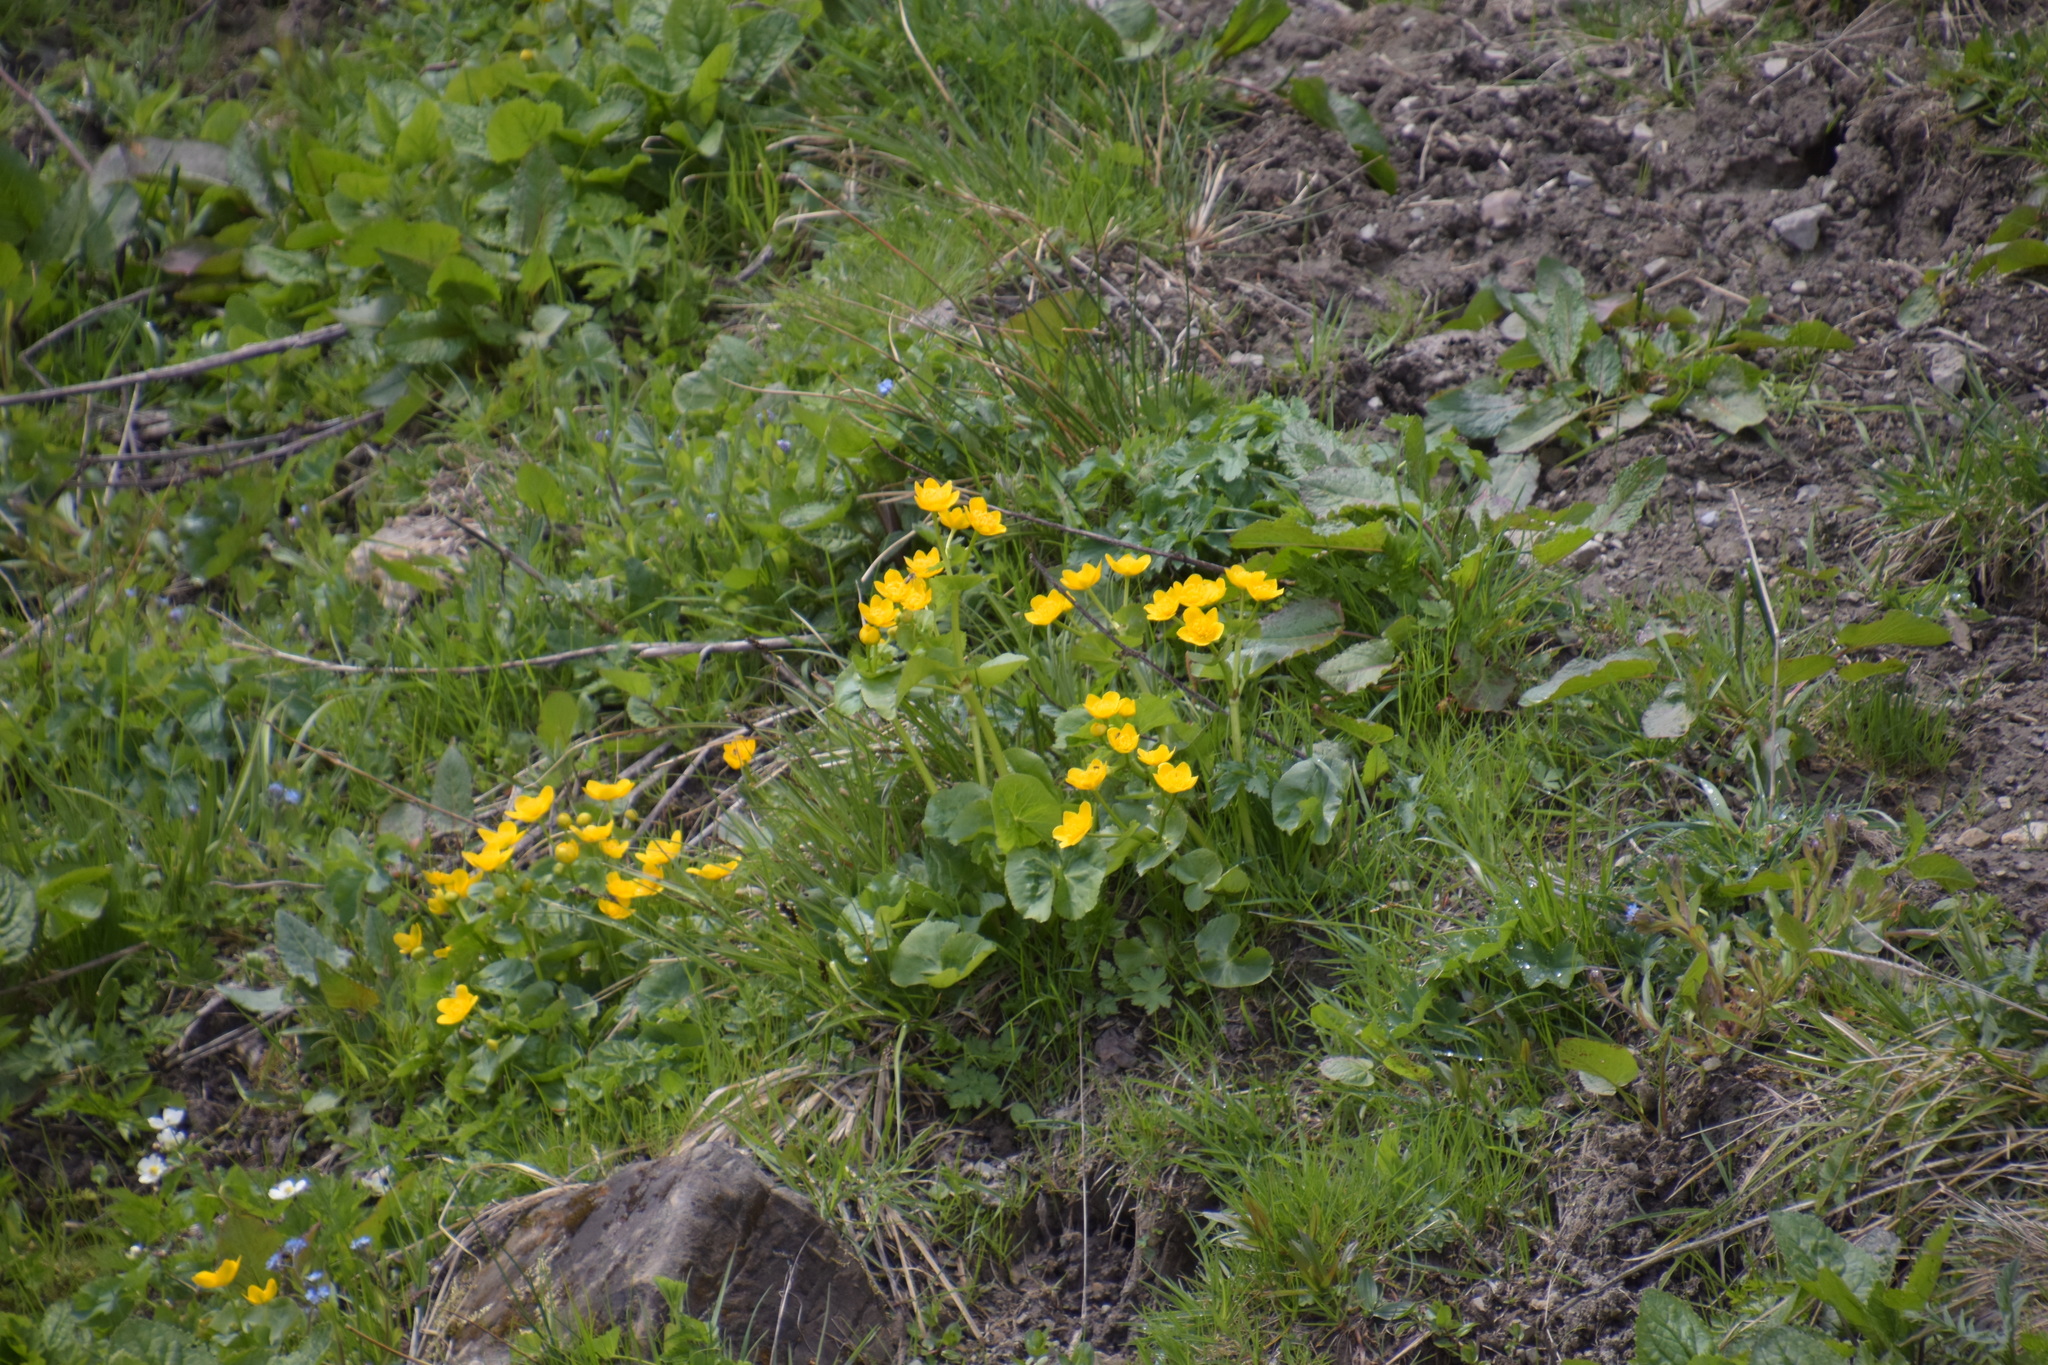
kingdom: Plantae
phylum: Tracheophyta
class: Magnoliopsida
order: Ranunculales
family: Ranunculaceae
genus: Caltha
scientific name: Caltha palustris
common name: Marsh marigold
